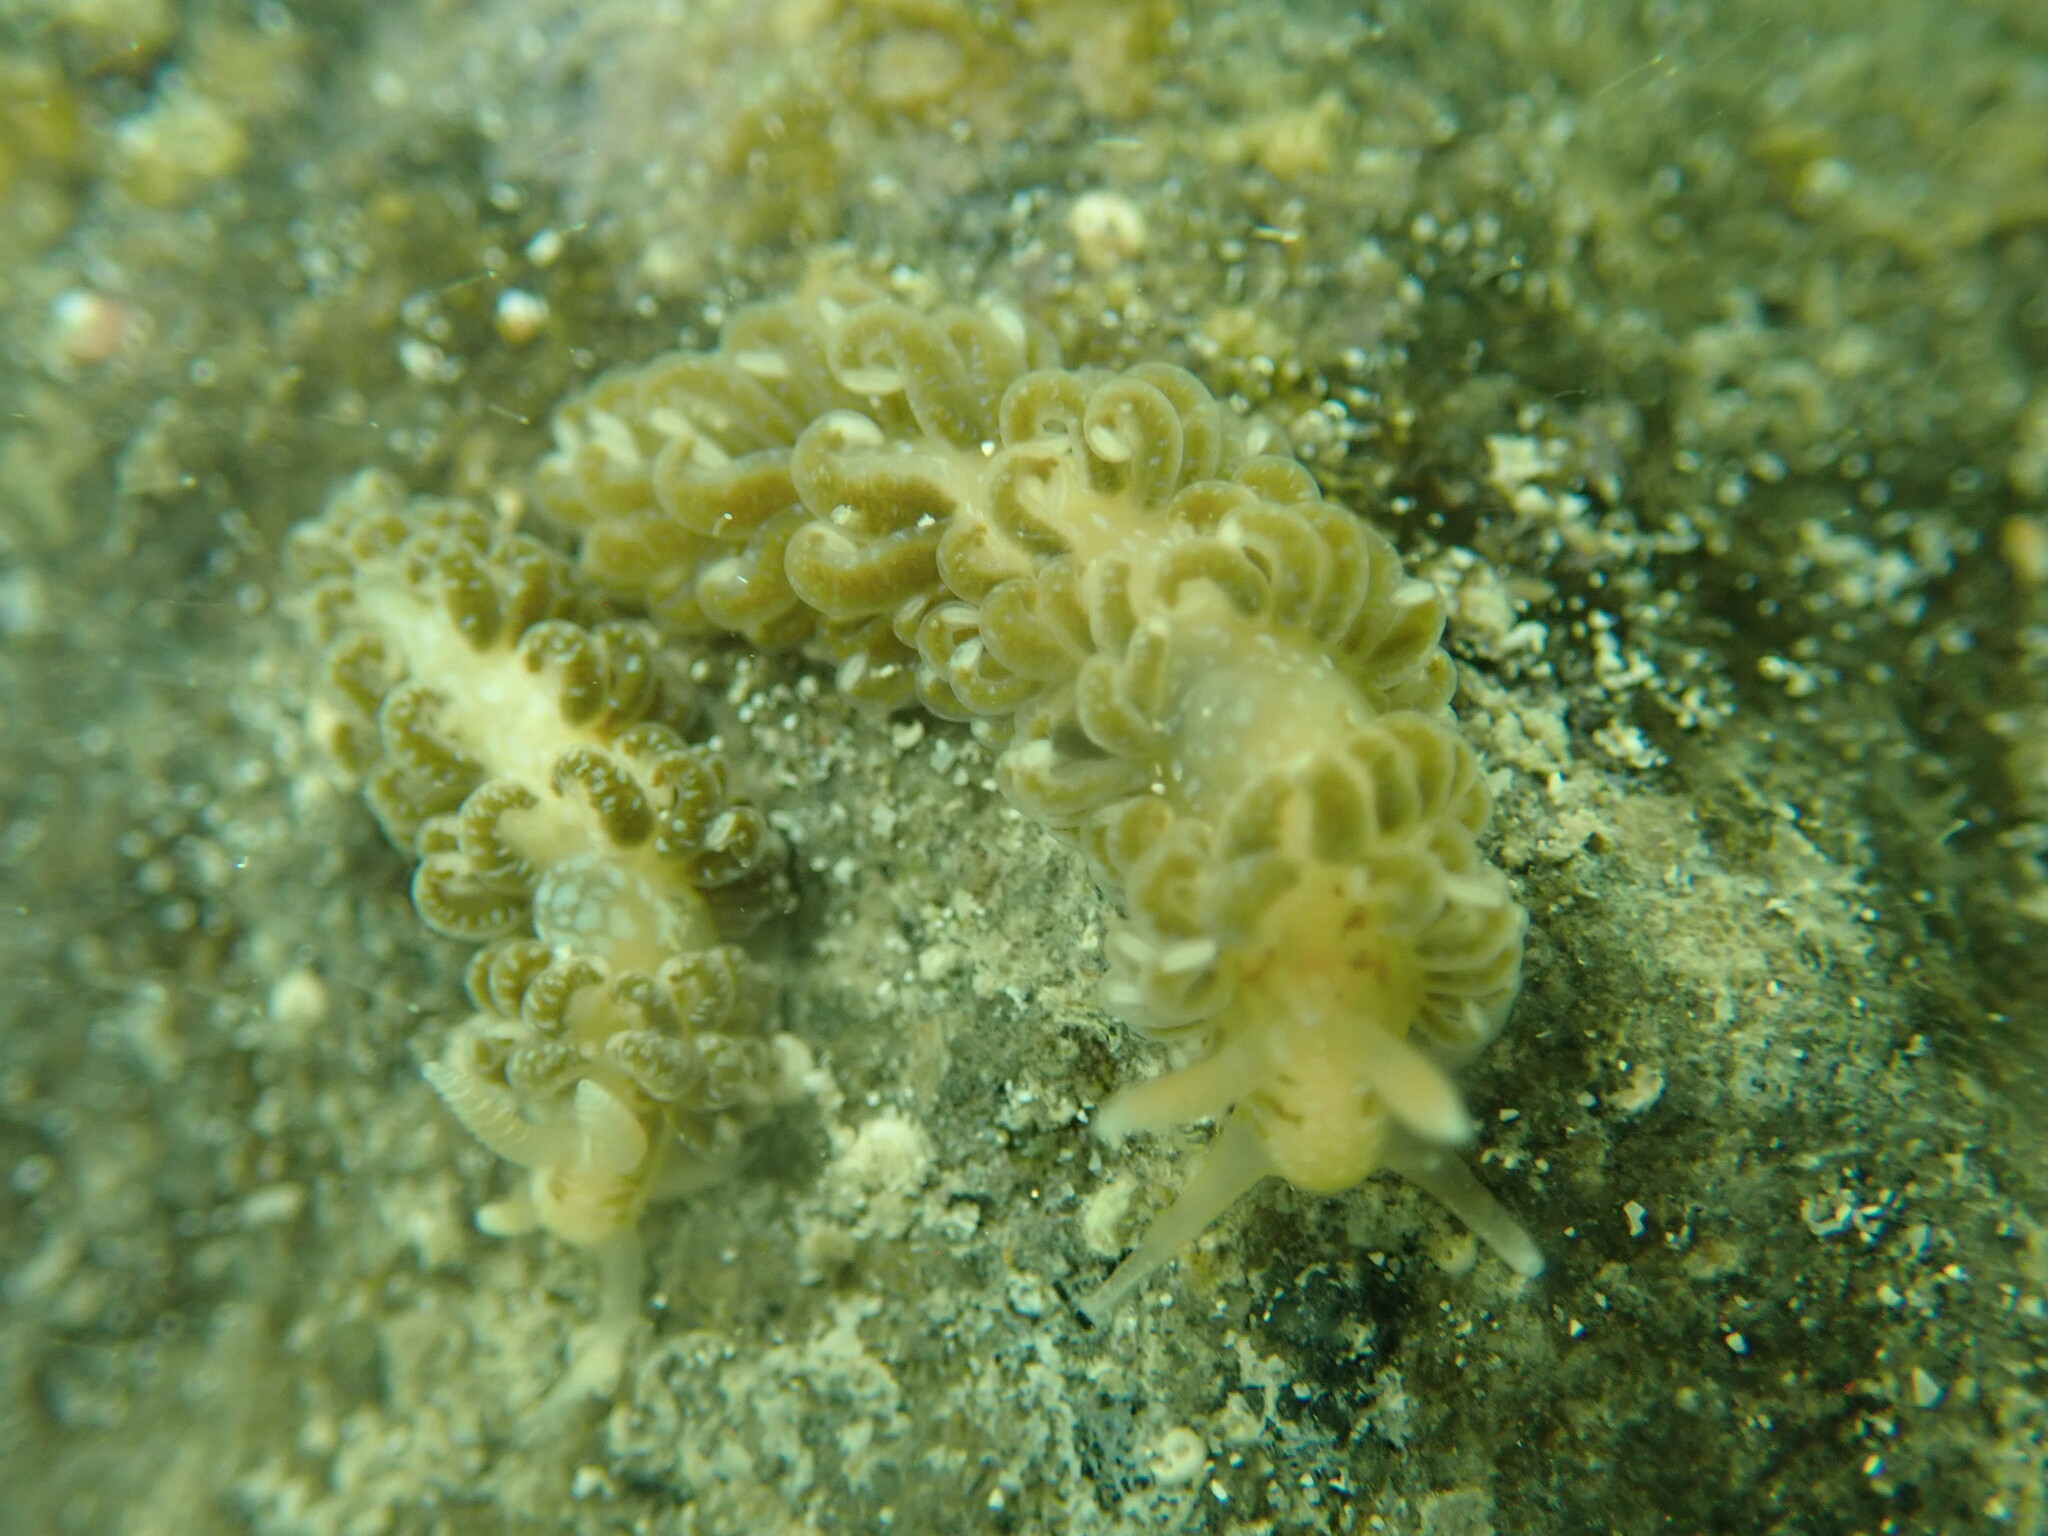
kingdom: Animalia
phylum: Mollusca
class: Gastropoda
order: Nudibranchia
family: Aeolidiidae
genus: Spurilla
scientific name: Spurilla braziliana
